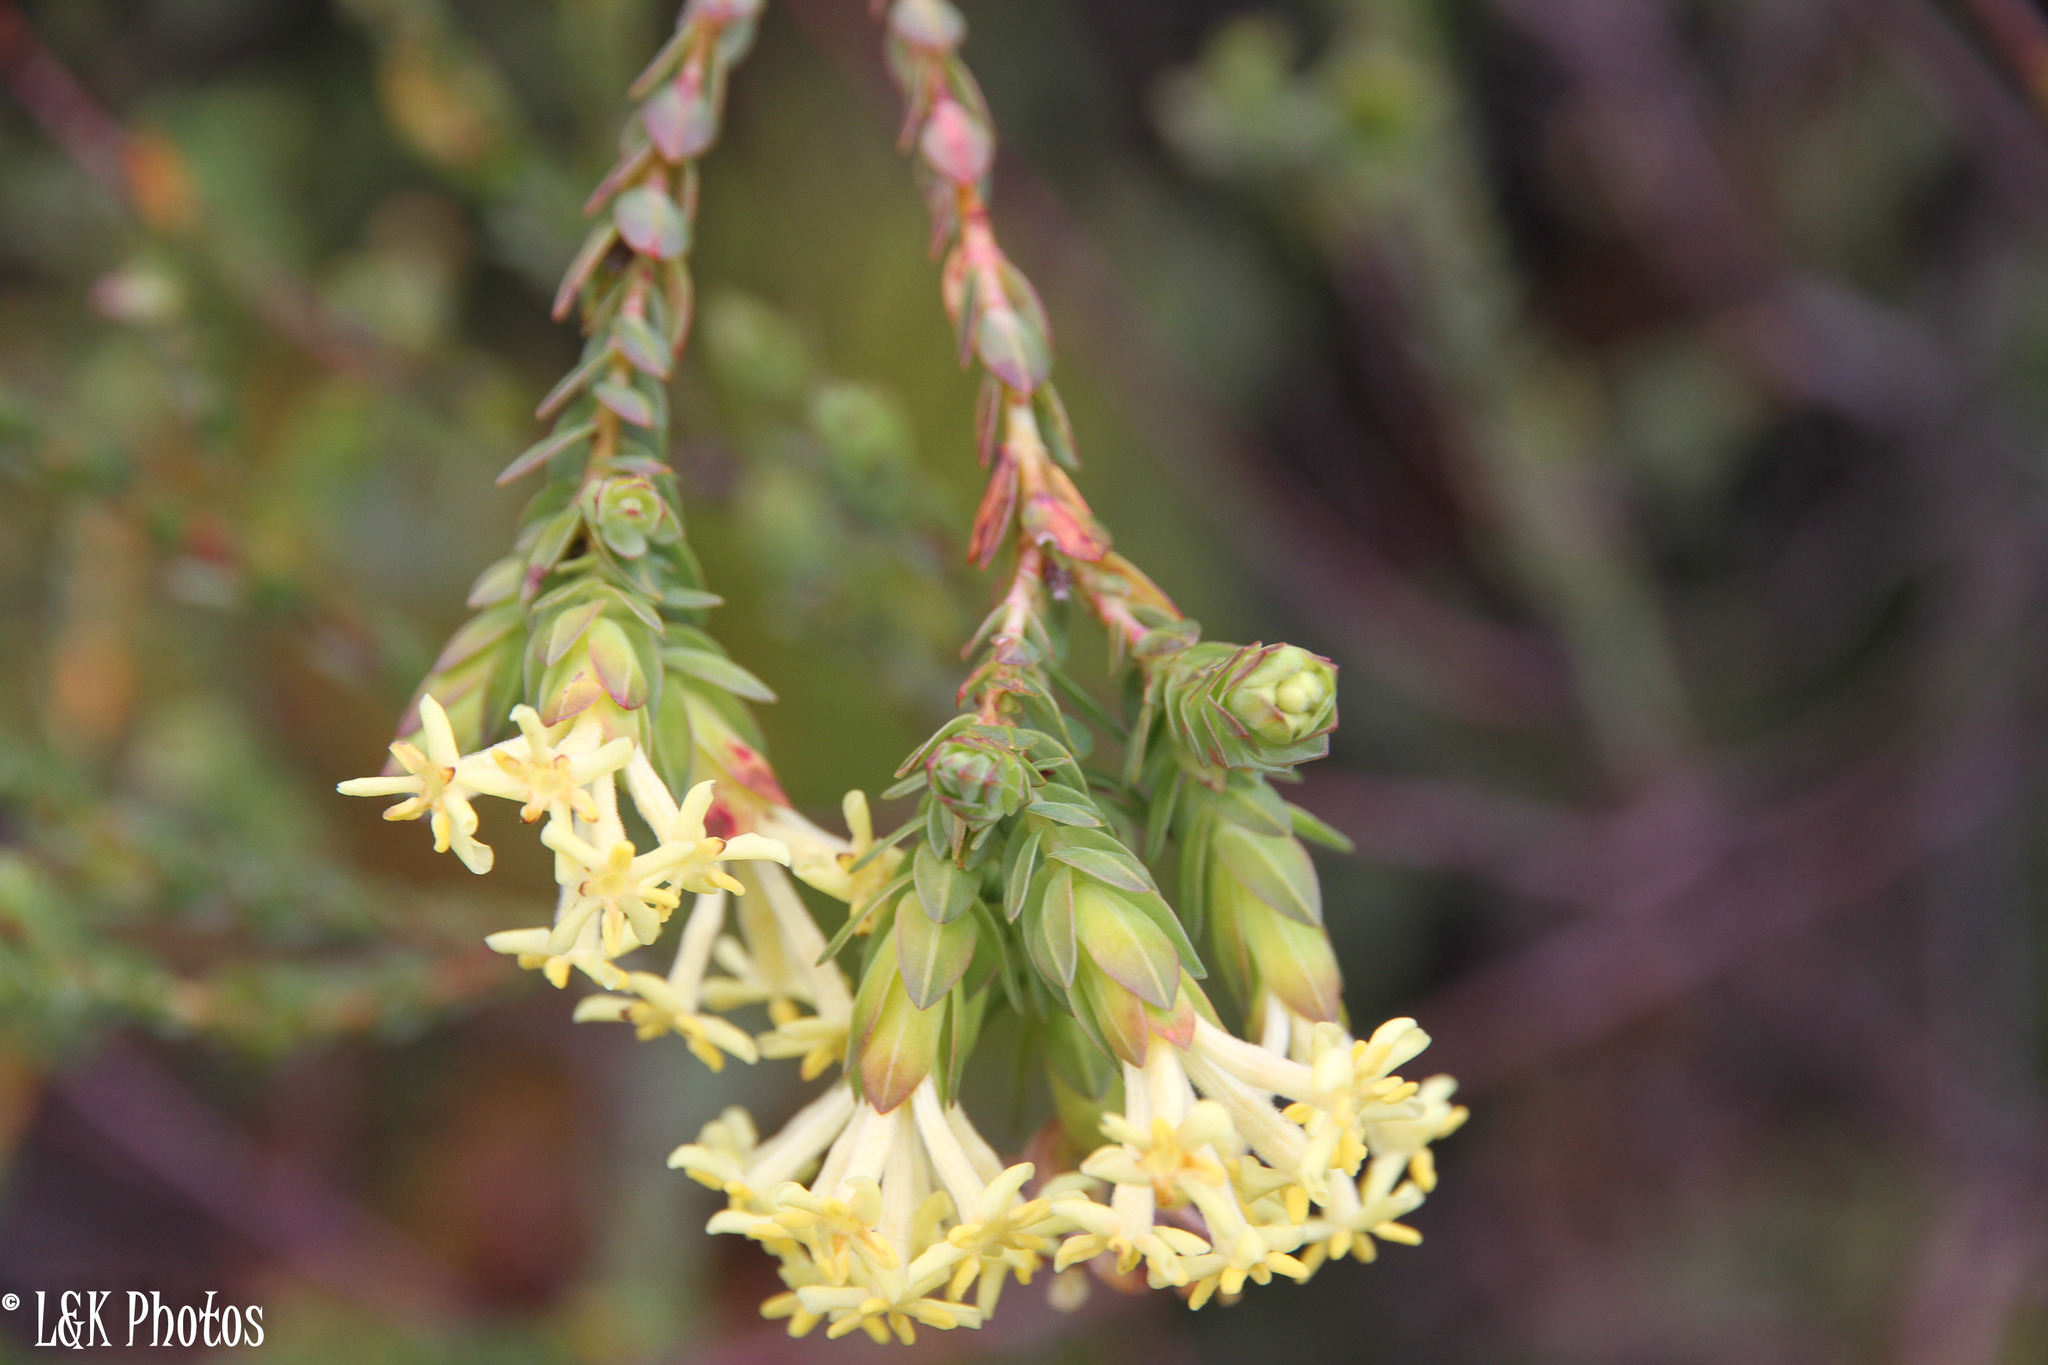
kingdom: Plantae
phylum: Tracheophyta
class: Magnoliopsida
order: Malvales
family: Thymelaeaceae
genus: Gnidia
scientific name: Gnidia oppositifolia
